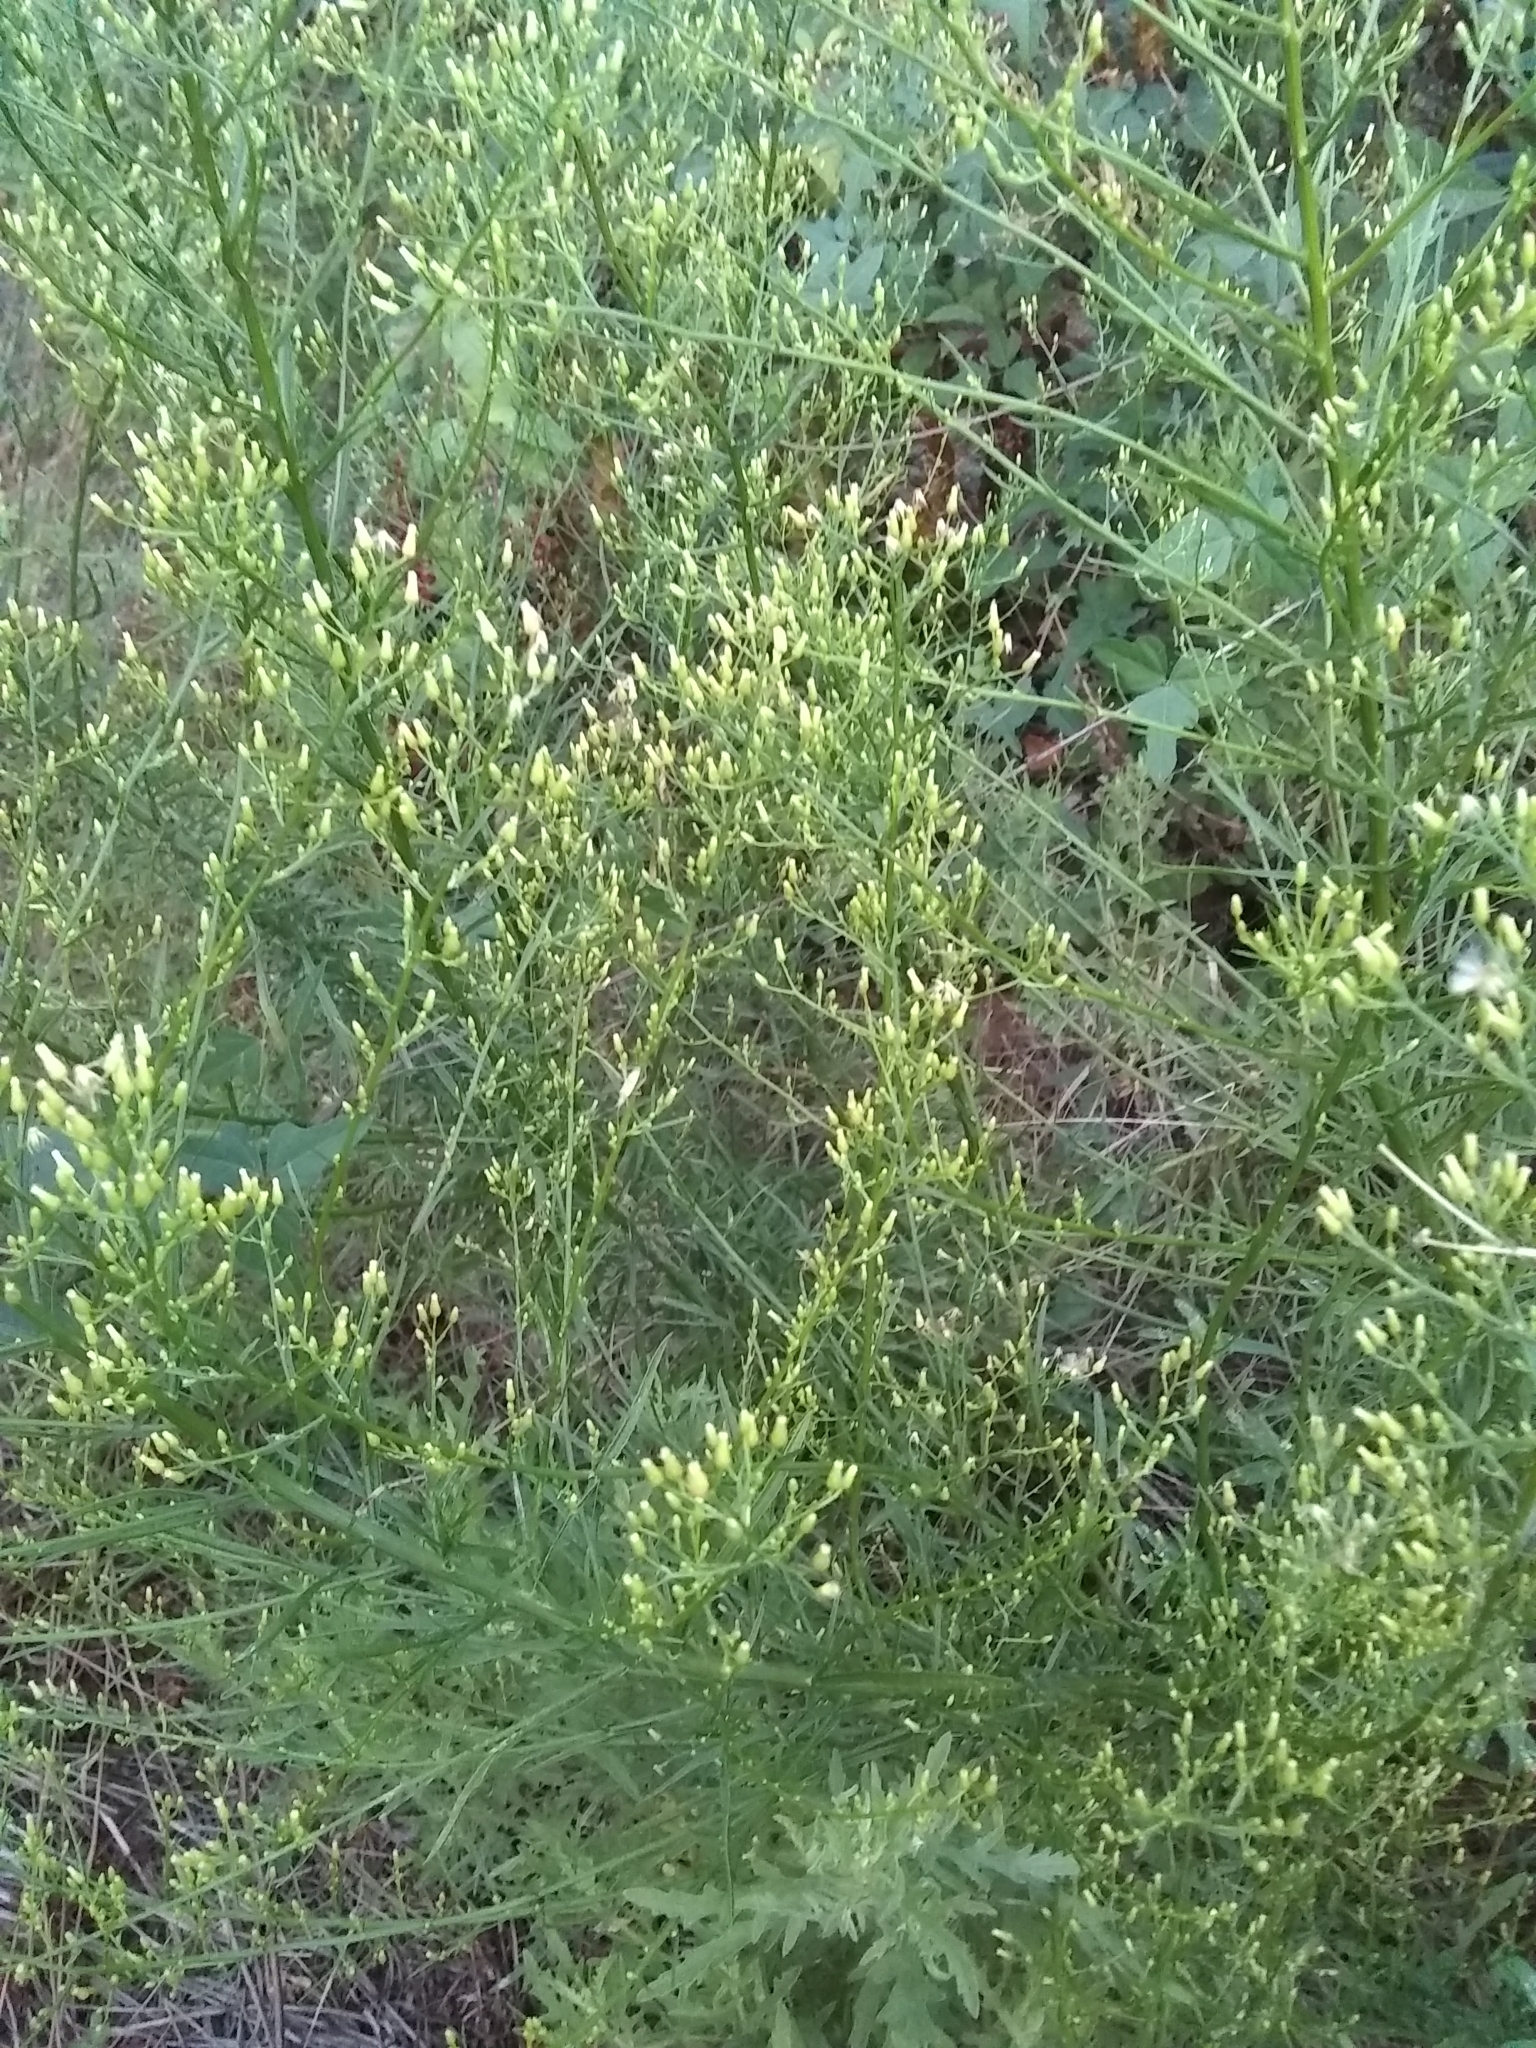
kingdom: Plantae
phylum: Tracheophyta
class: Magnoliopsida
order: Asterales
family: Asteraceae
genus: Erigeron
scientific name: Erigeron canadensis
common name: Canadian fleabane
